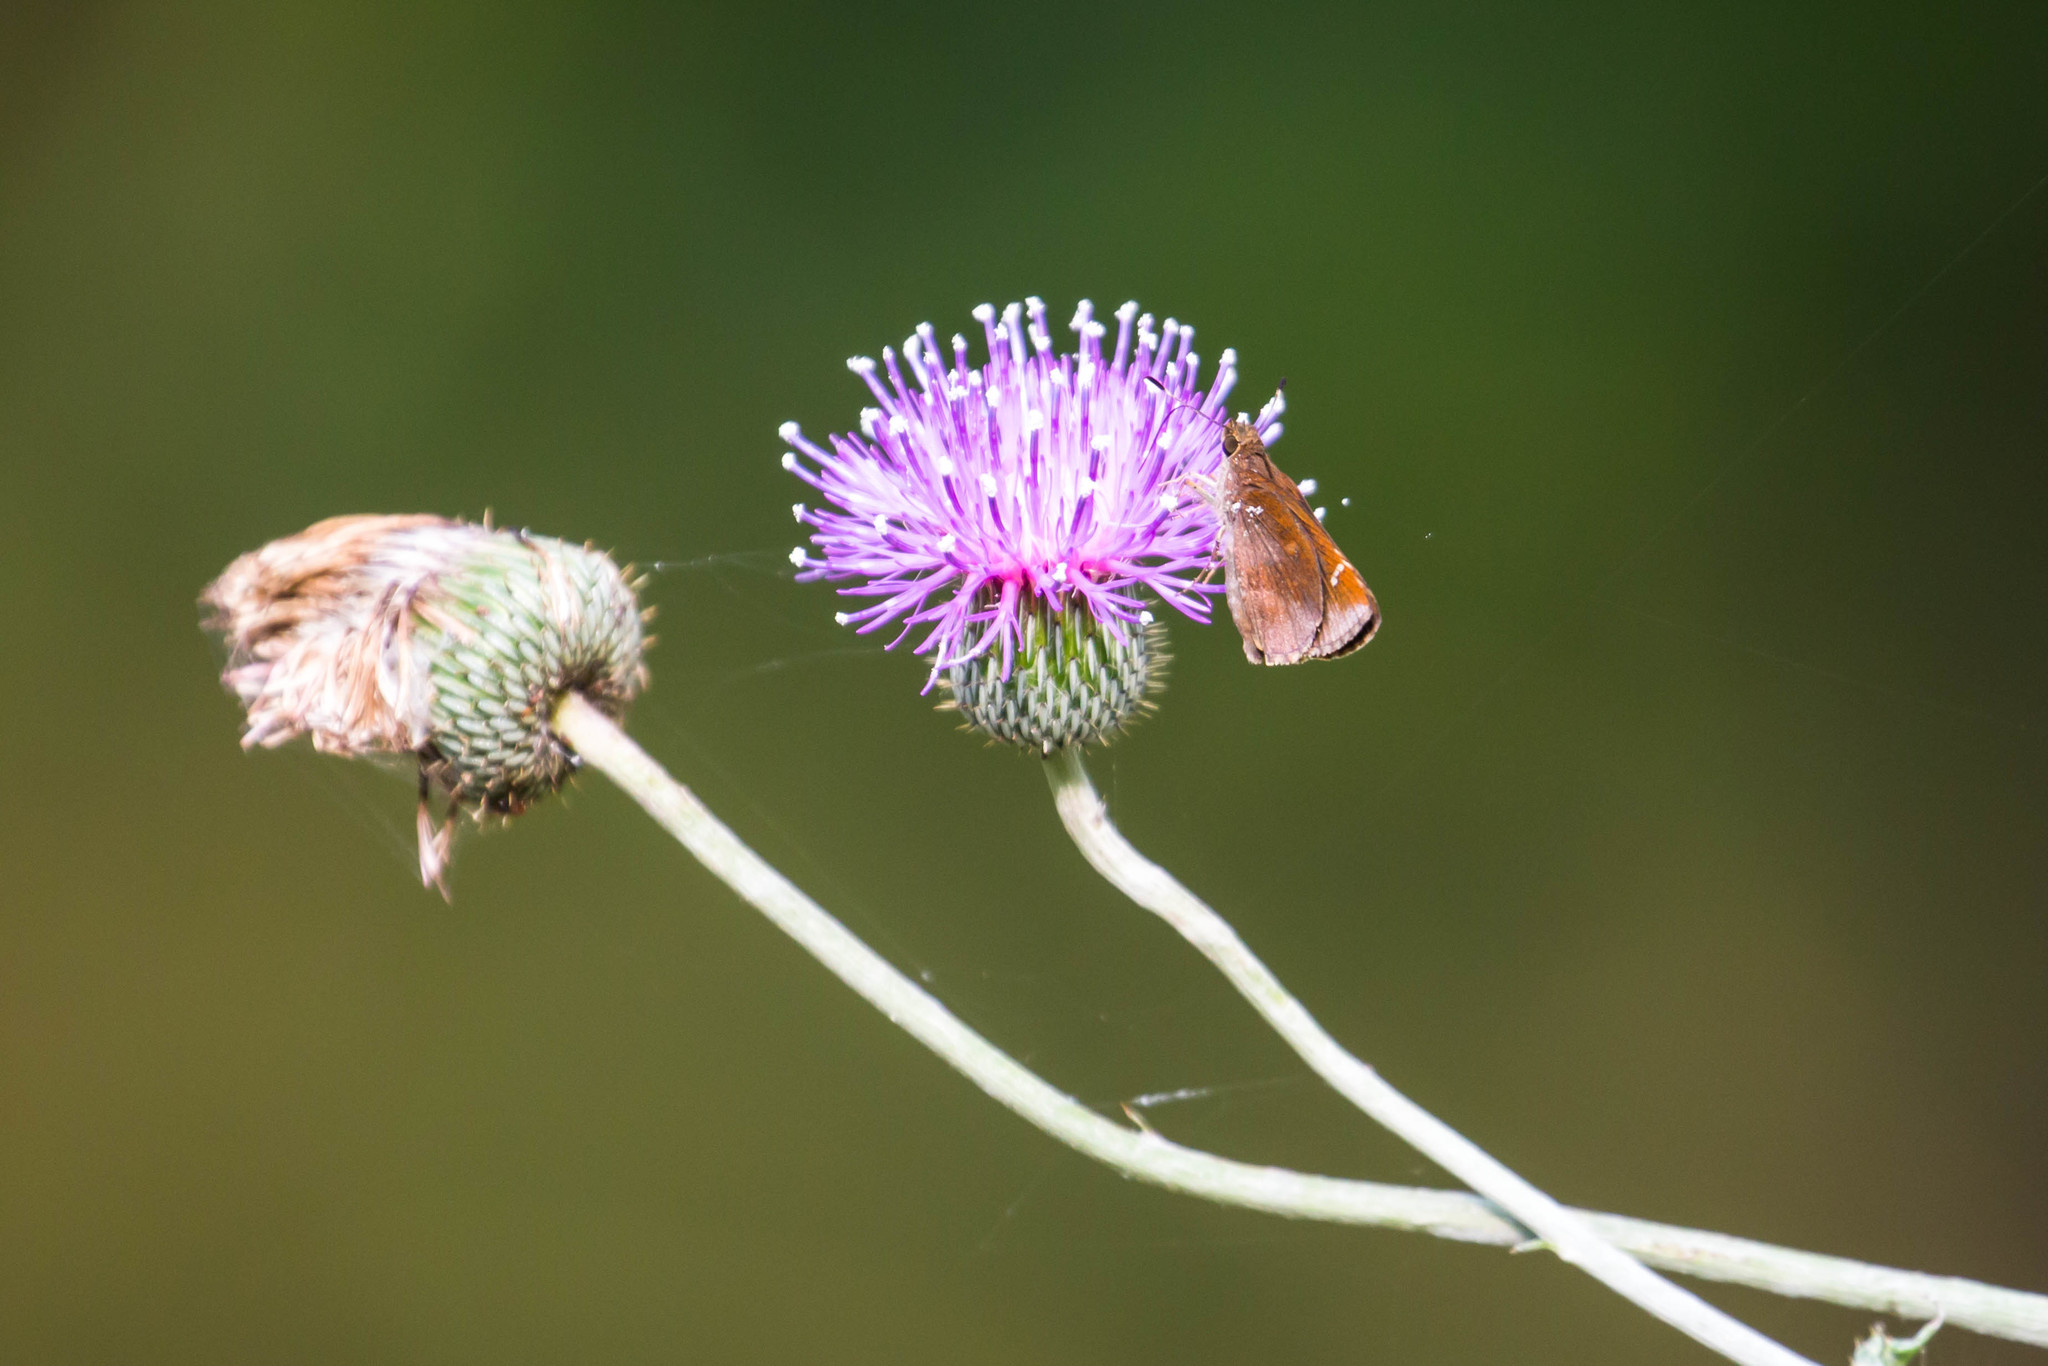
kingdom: Animalia
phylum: Arthropoda
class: Insecta
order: Lepidoptera
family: Hesperiidae
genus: Lerema
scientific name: Lerema accius
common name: Clouded skipper
